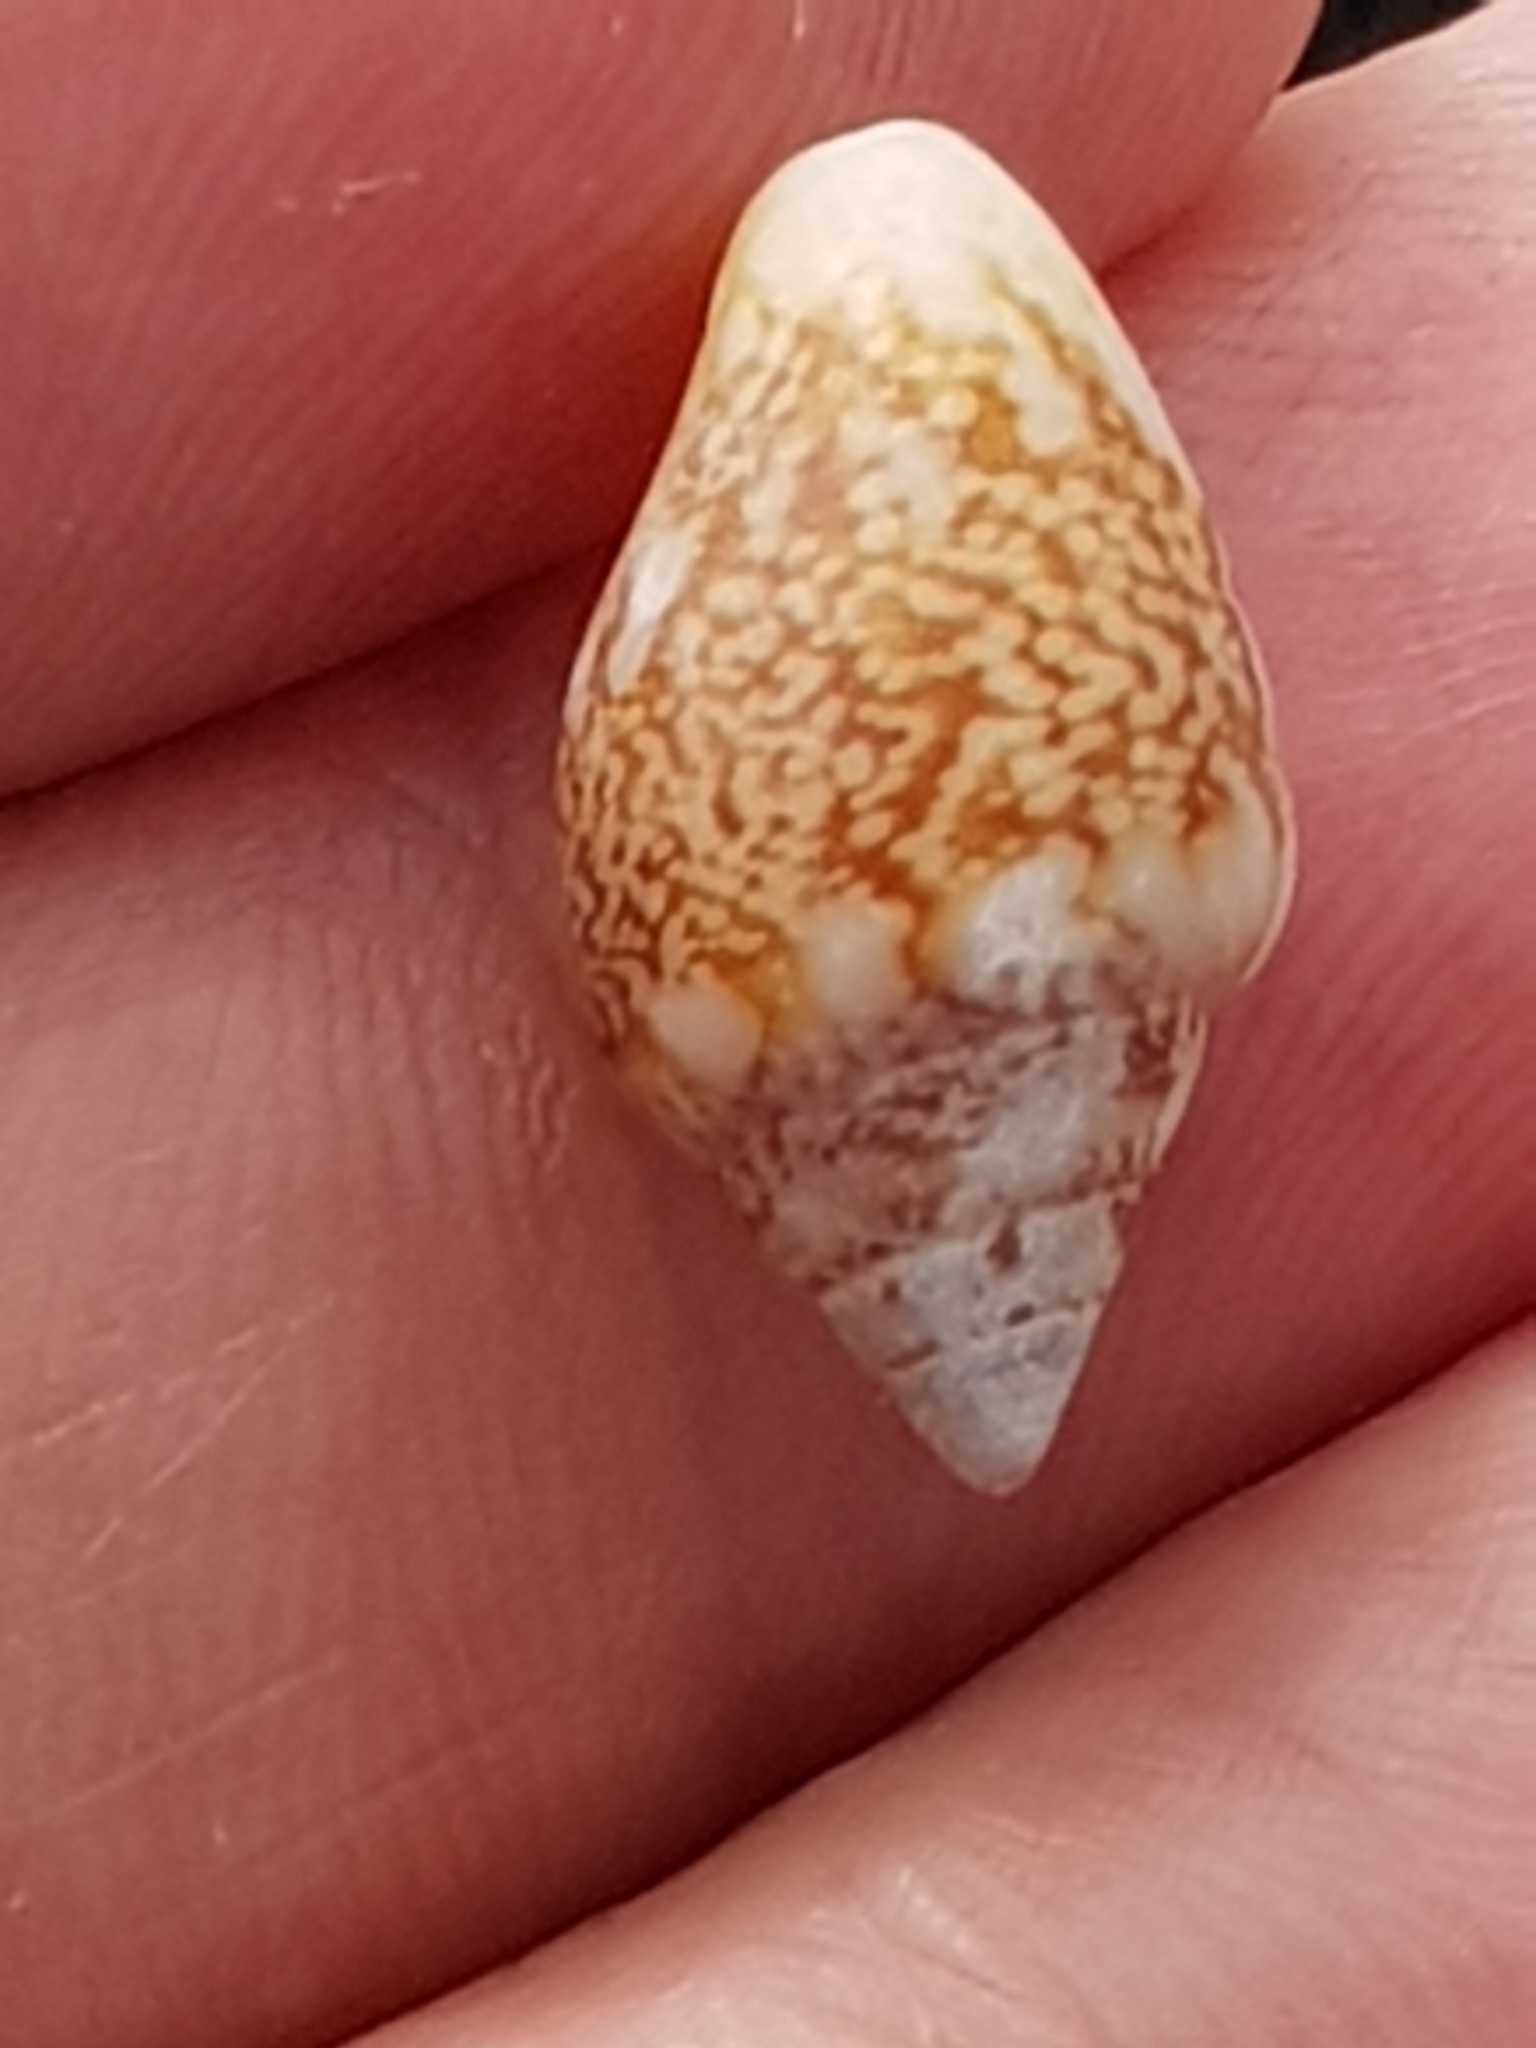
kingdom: Animalia
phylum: Mollusca
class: Gastropoda
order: Neogastropoda
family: Columbellidae
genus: Columbella
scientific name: Columbella rustica
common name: Rustic dove shell
